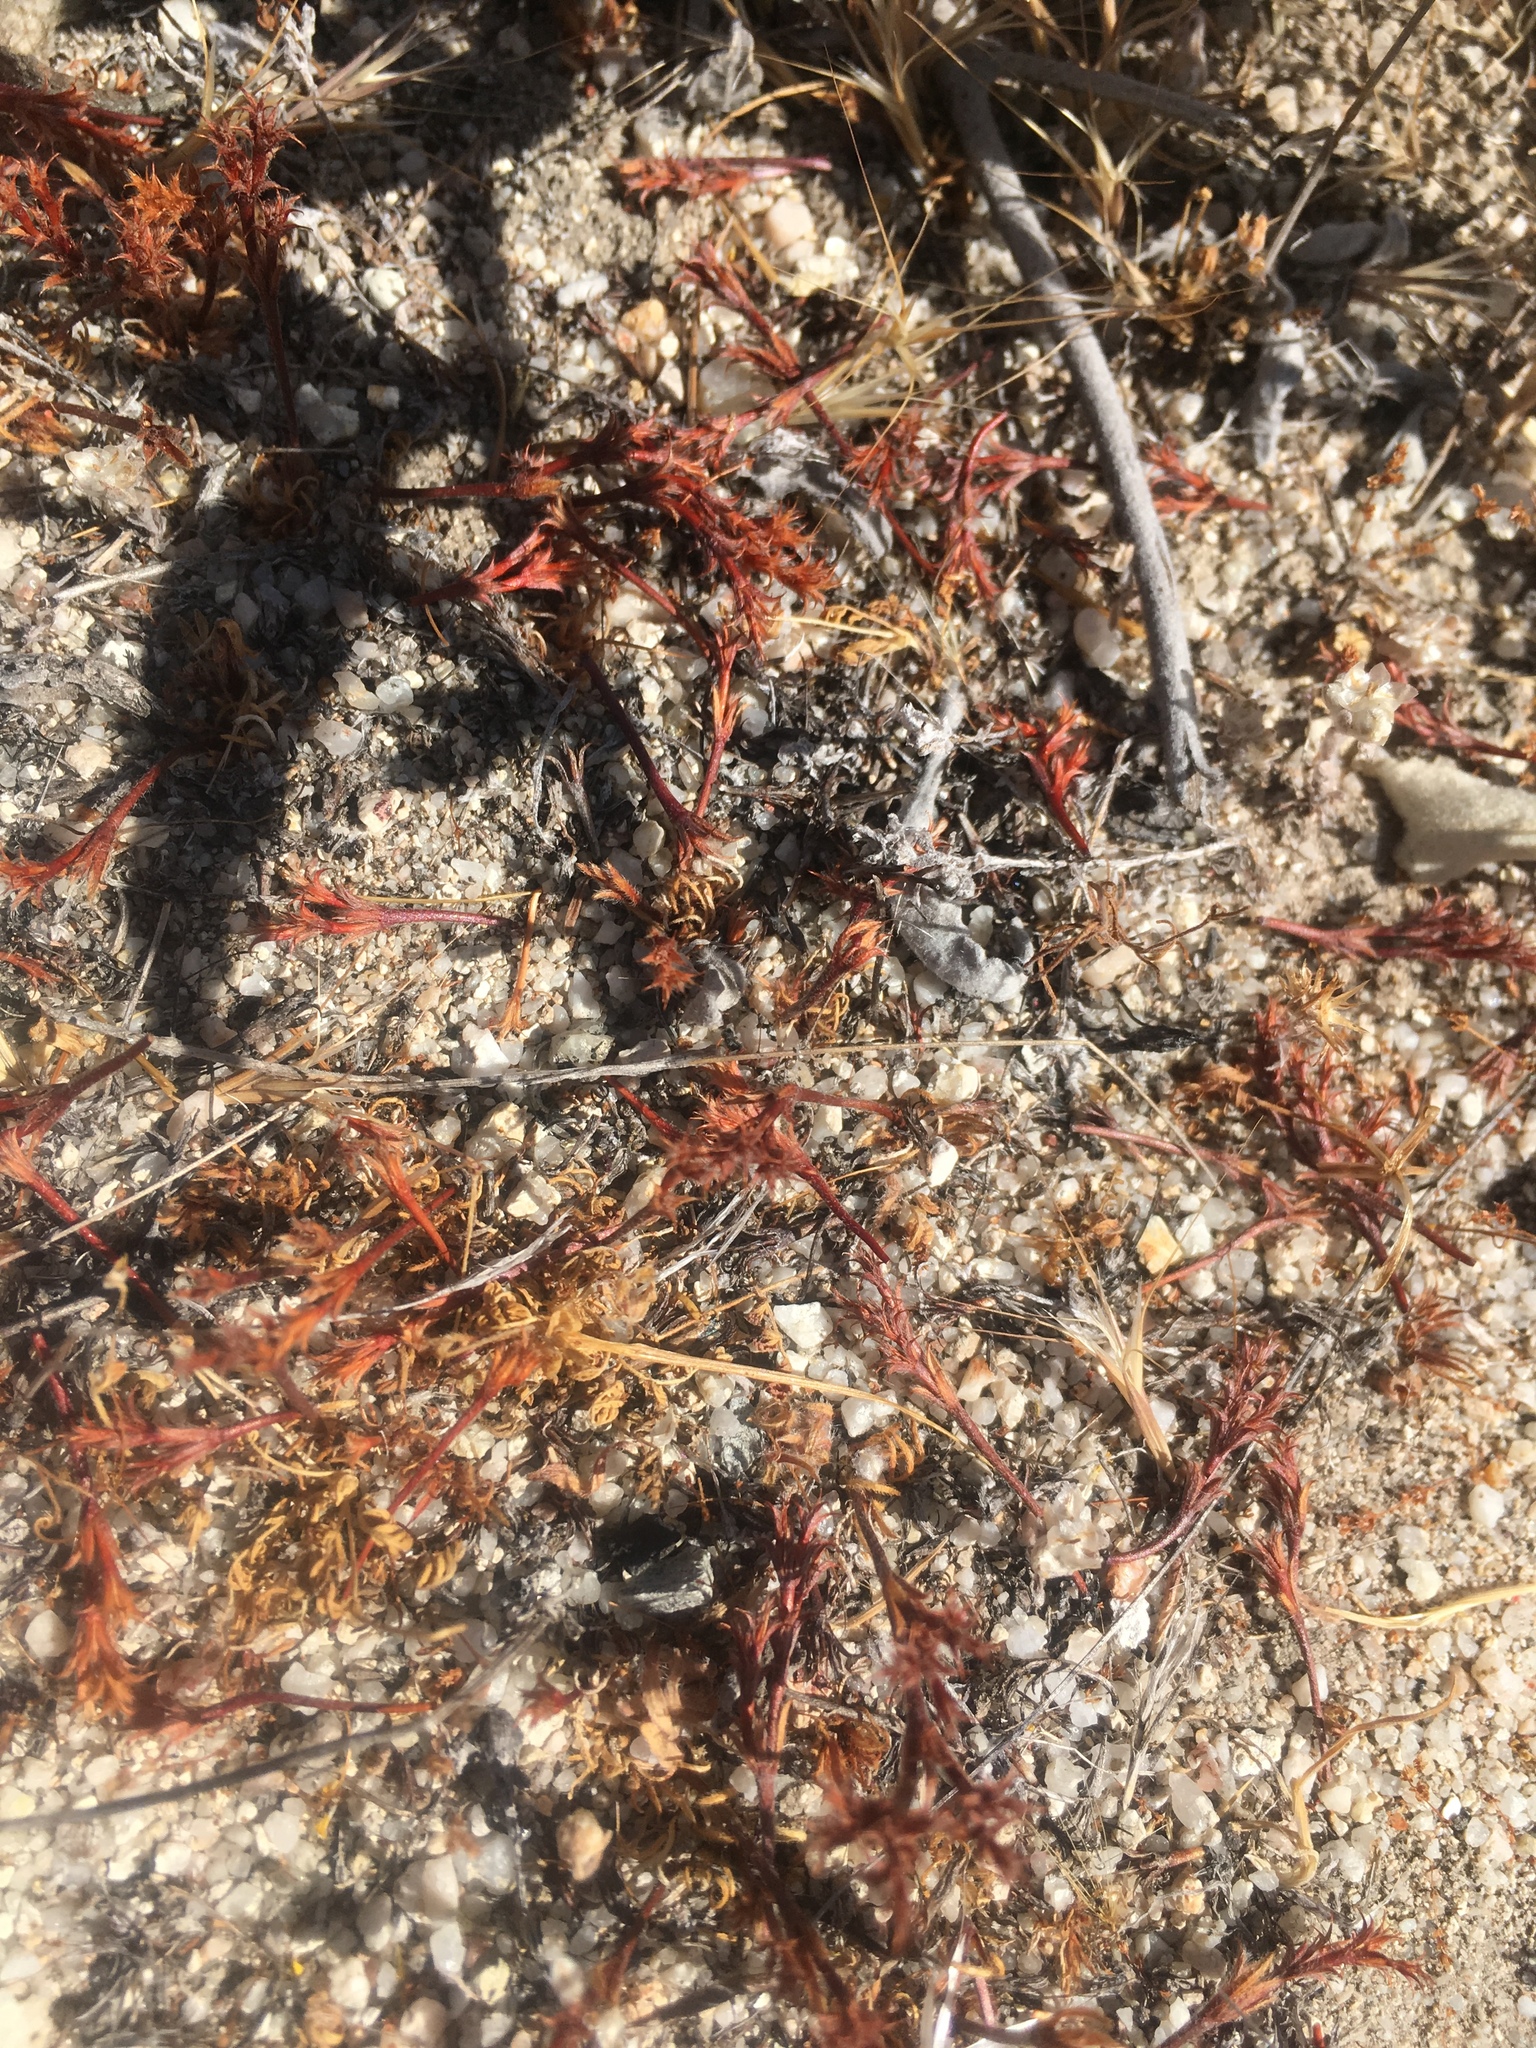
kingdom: Plantae
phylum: Tracheophyta
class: Magnoliopsida
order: Caryophyllales
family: Polygonaceae
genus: Lastarriaea
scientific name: Lastarriaea coriacea
